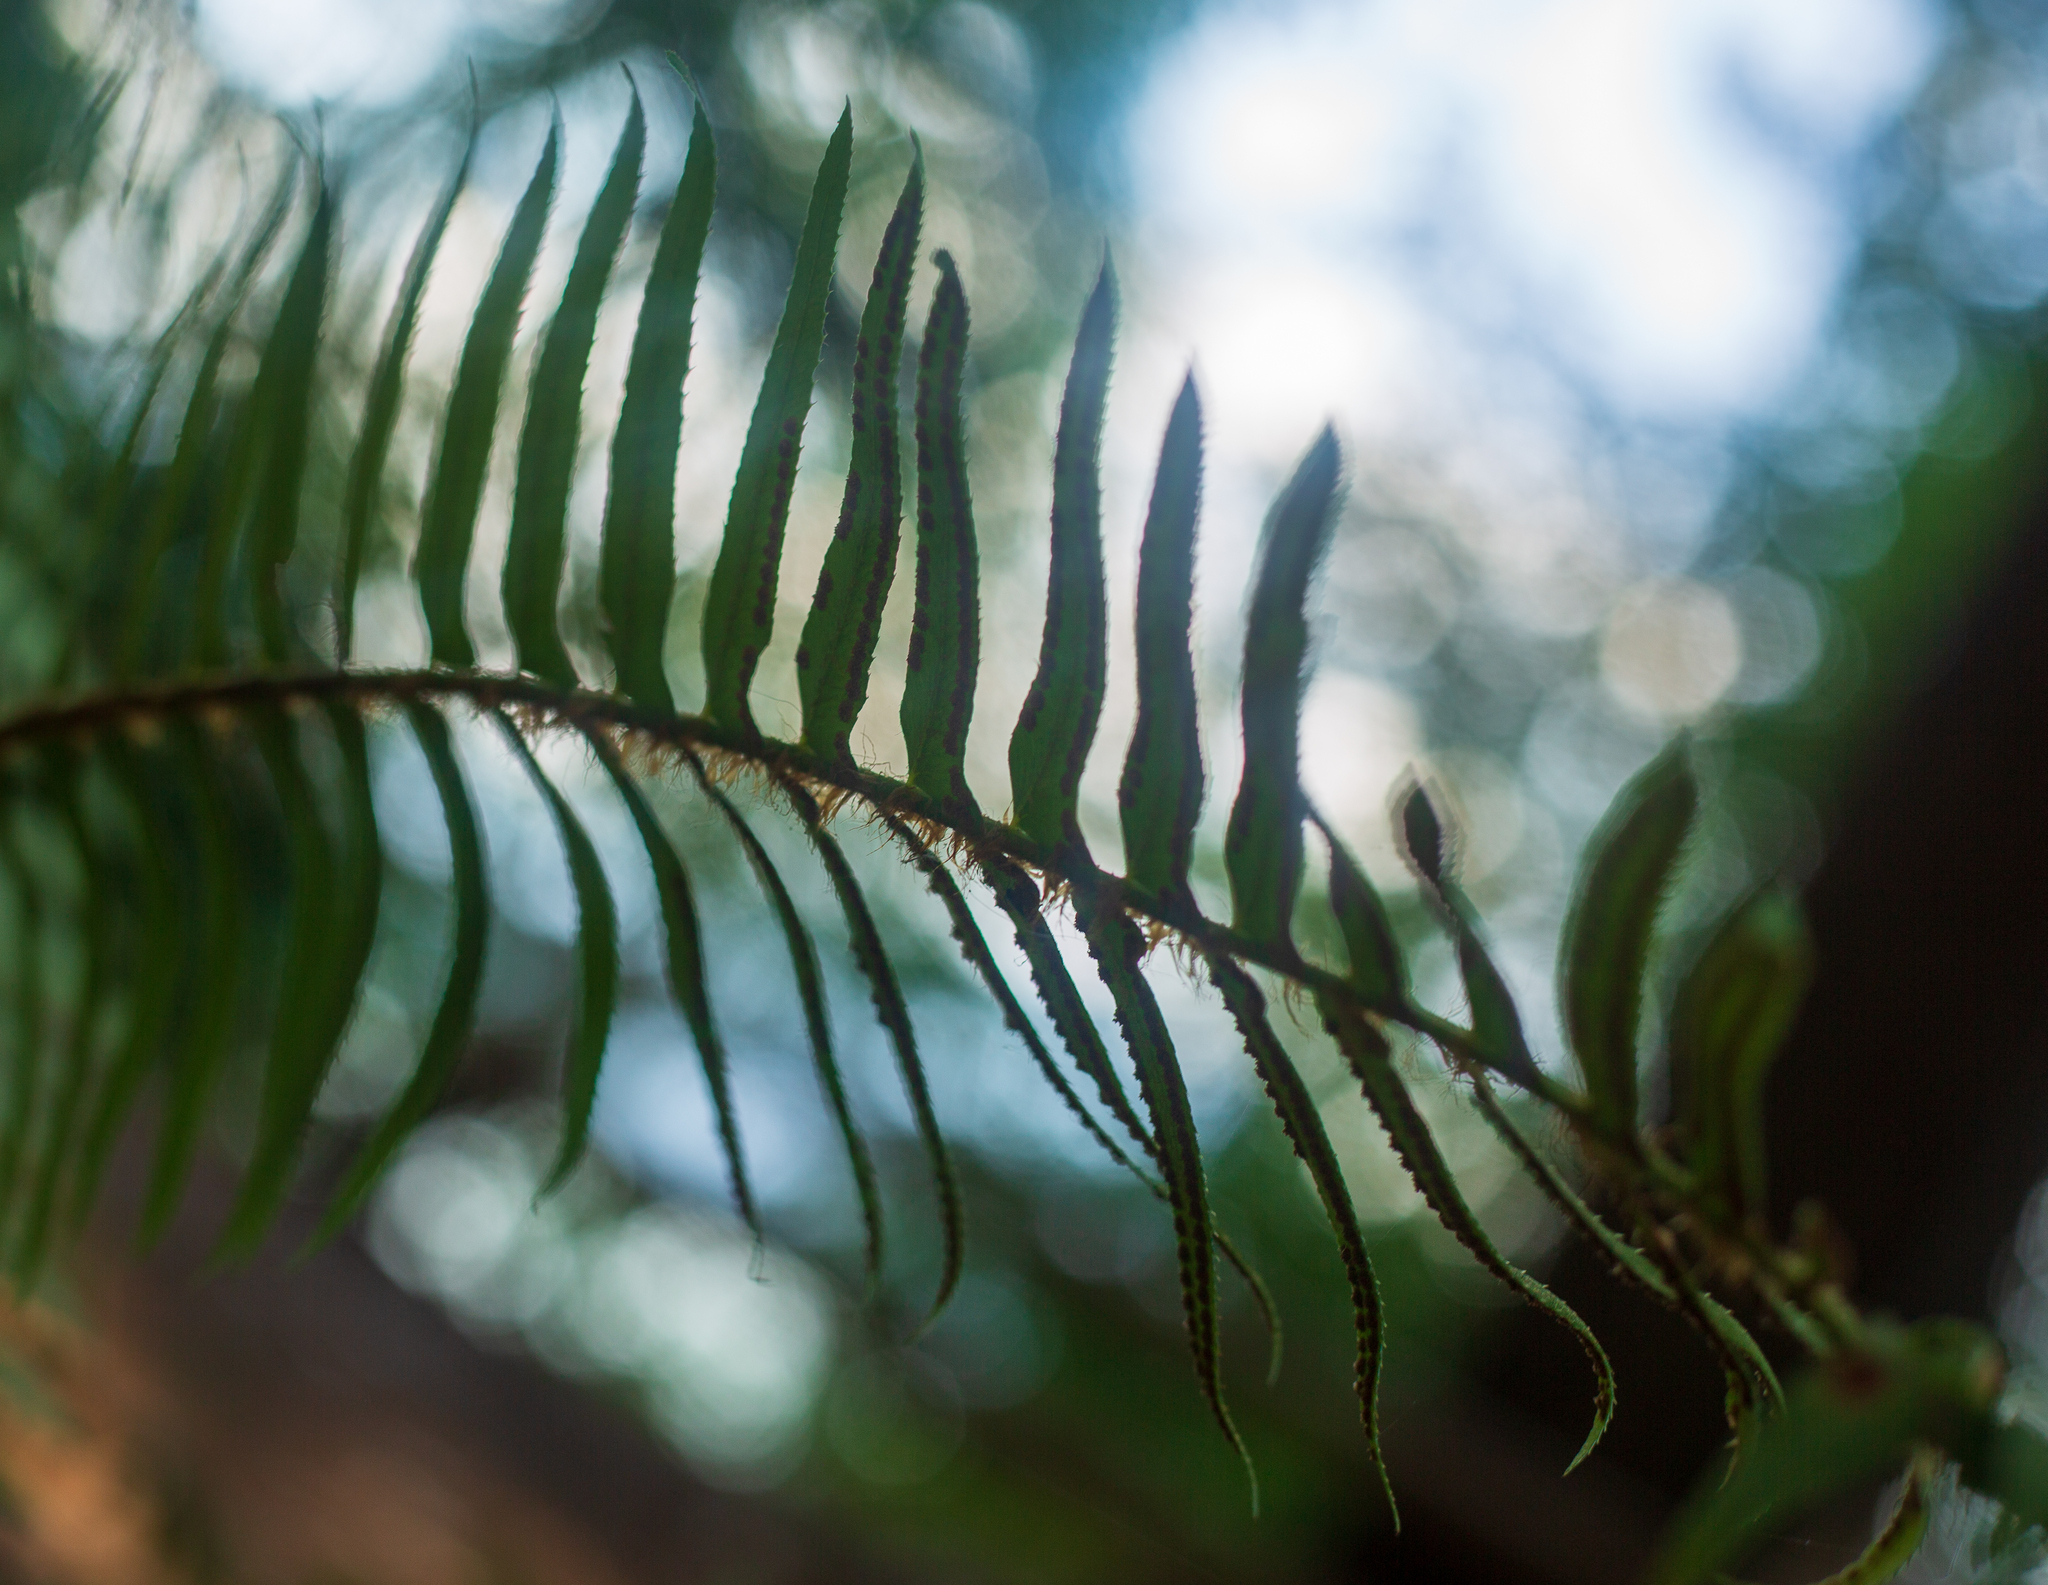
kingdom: Plantae
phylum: Tracheophyta
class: Polypodiopsida
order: Polypodiales
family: Dryopteridaceae
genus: Polystichum
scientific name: Polystichum munitum
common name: Western sword-fern
